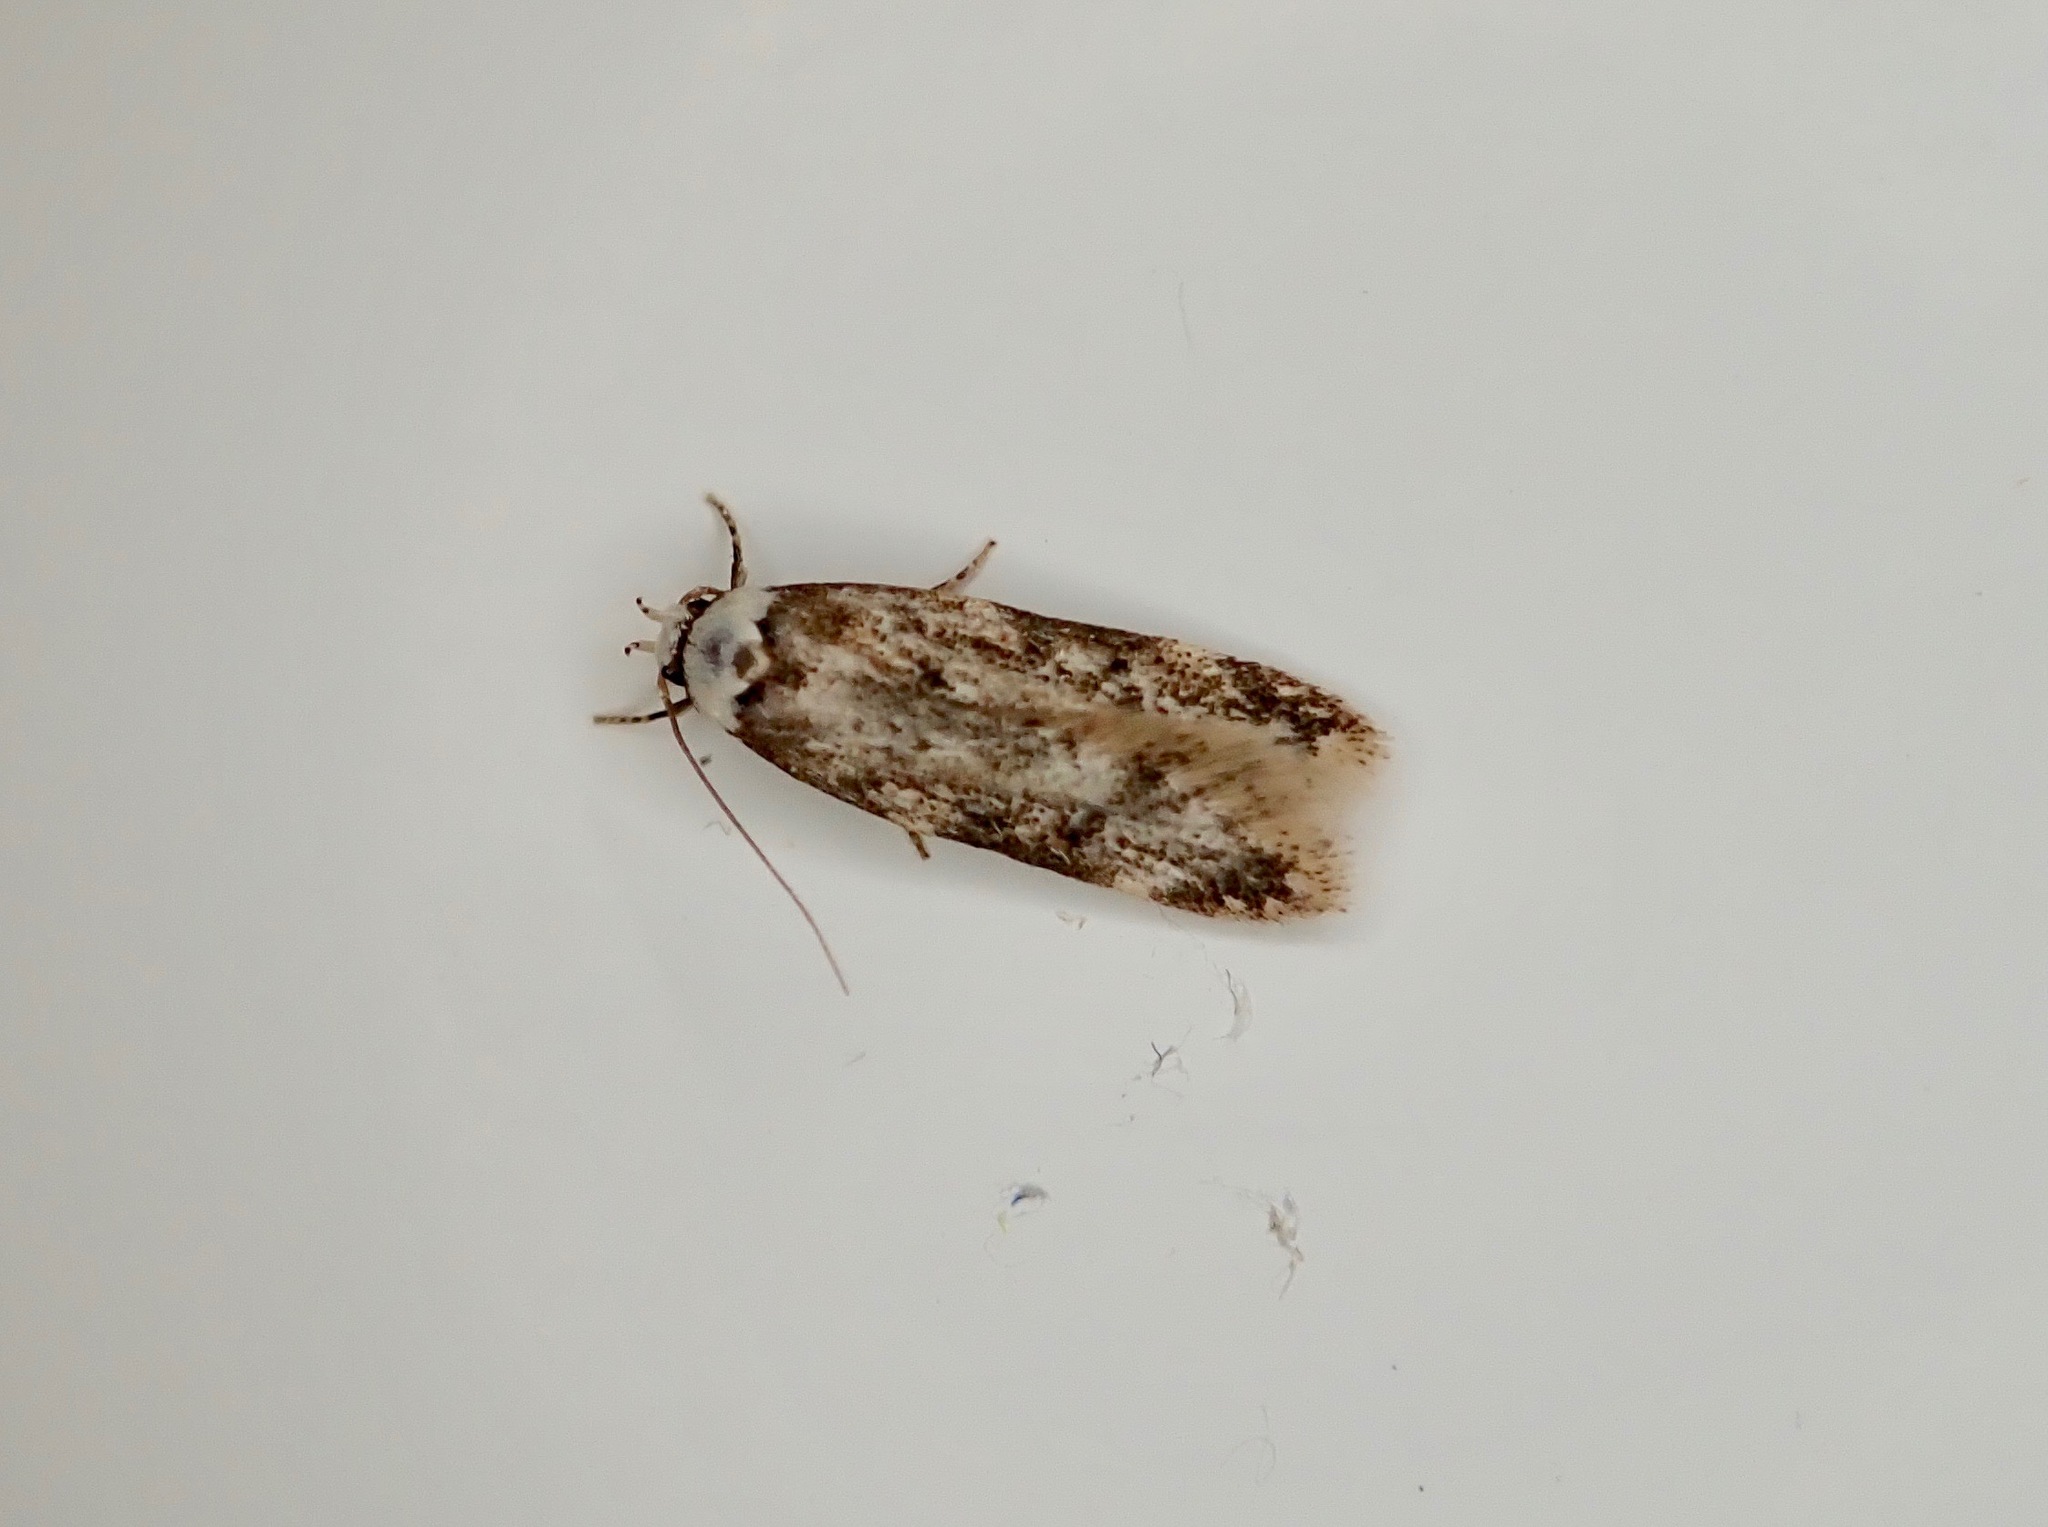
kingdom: Animalia
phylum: Arthropoda
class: Insecta
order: Lepidoptera
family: Oecophoridae
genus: Endrosis
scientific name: Endrosis sarcitrella
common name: White-shouldered house moth
